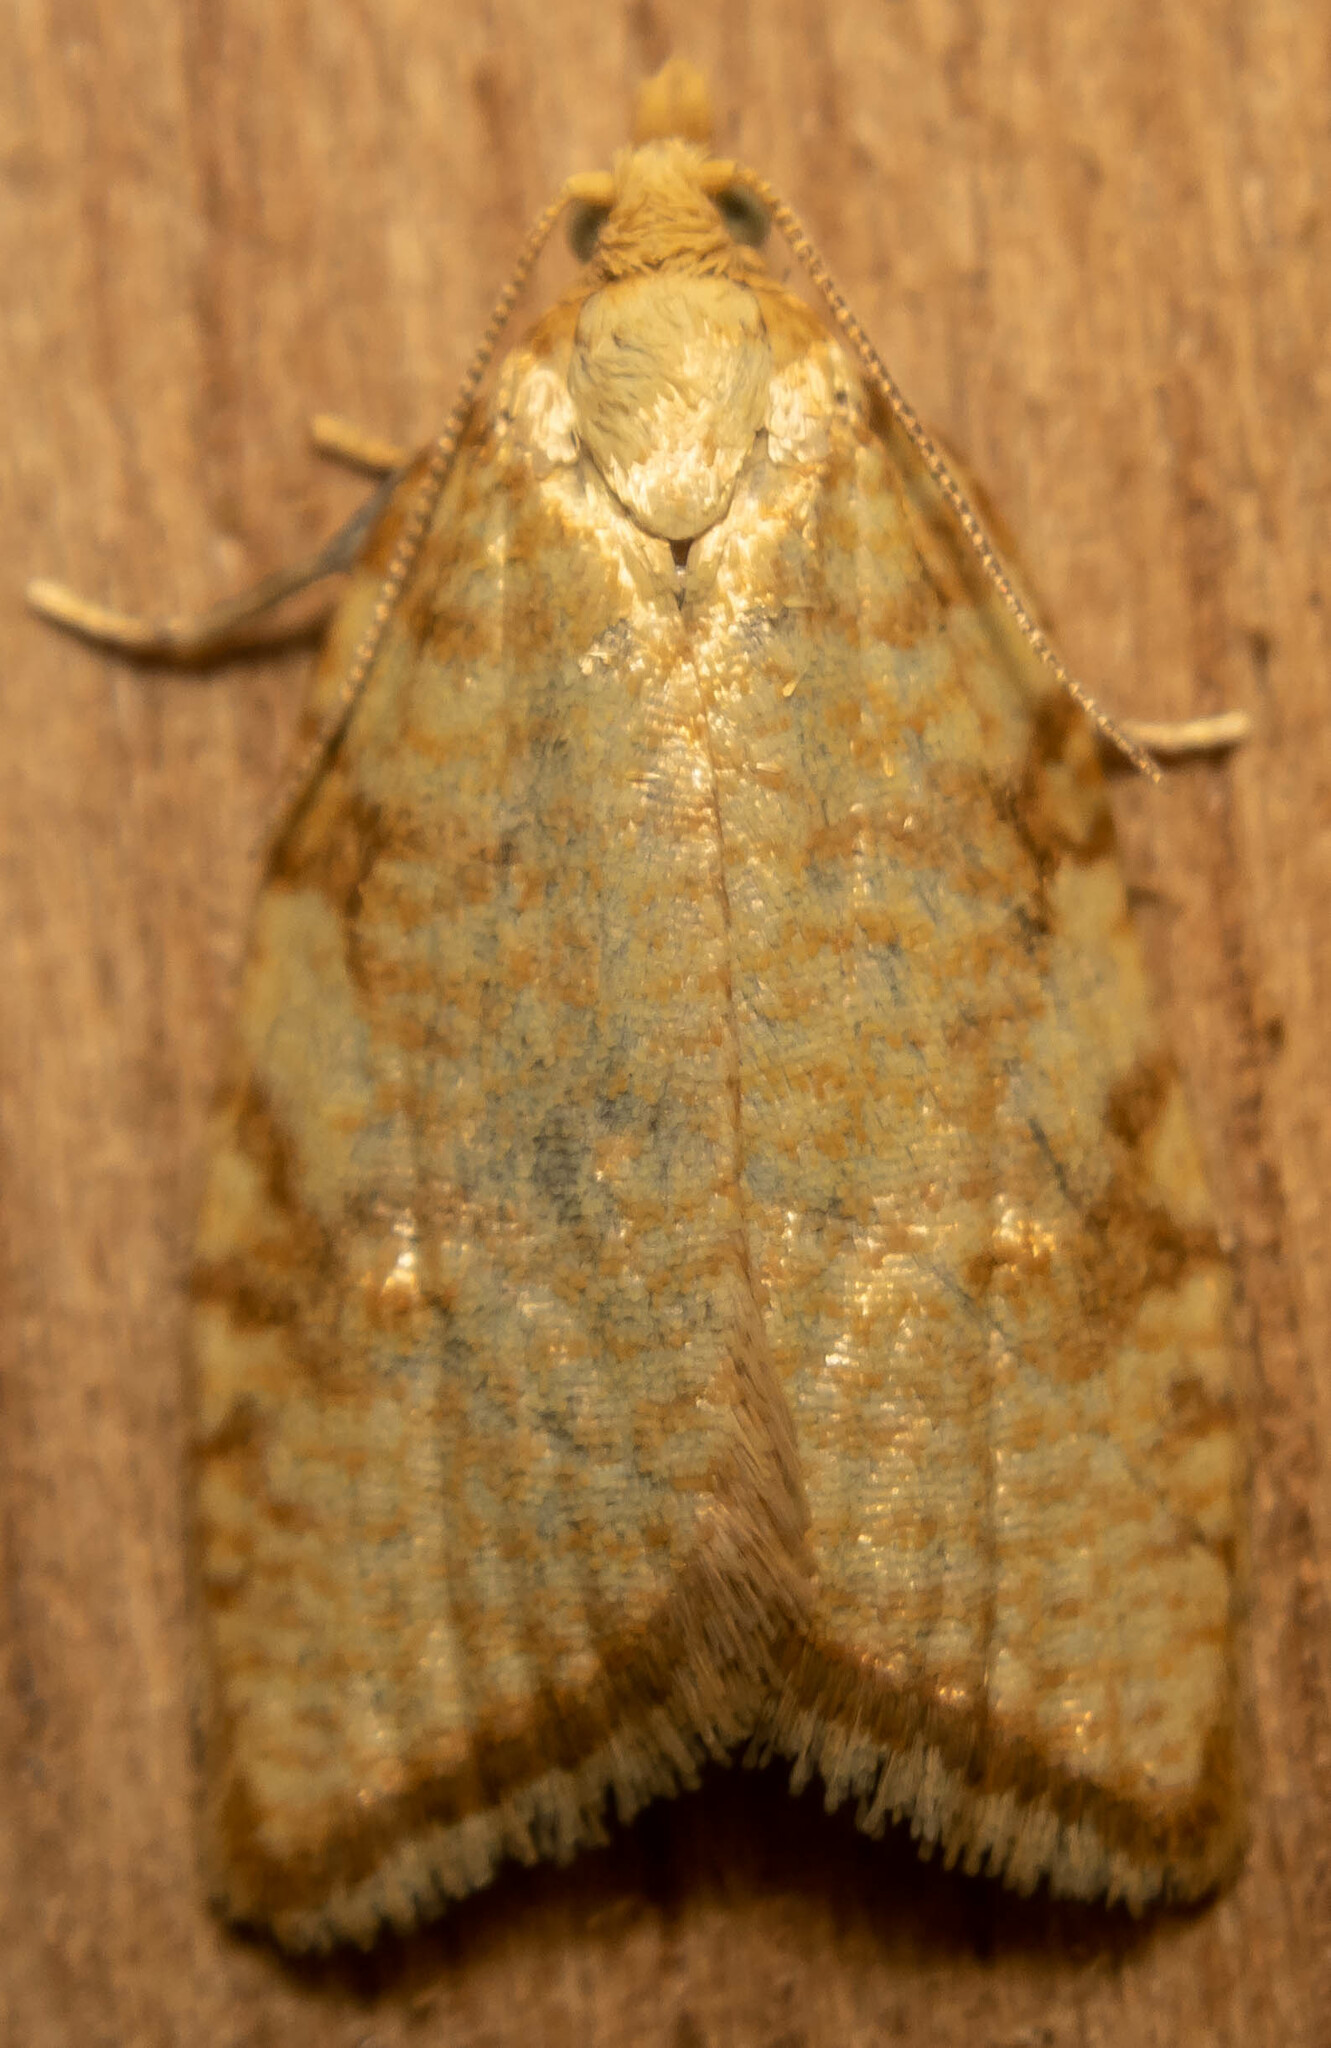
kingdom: Animalia
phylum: Arthropoda
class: Insecta
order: Lepidoptera
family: Tortricidae
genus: Aleimma
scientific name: Aleimma loeflingiana
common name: Yellow oak button
